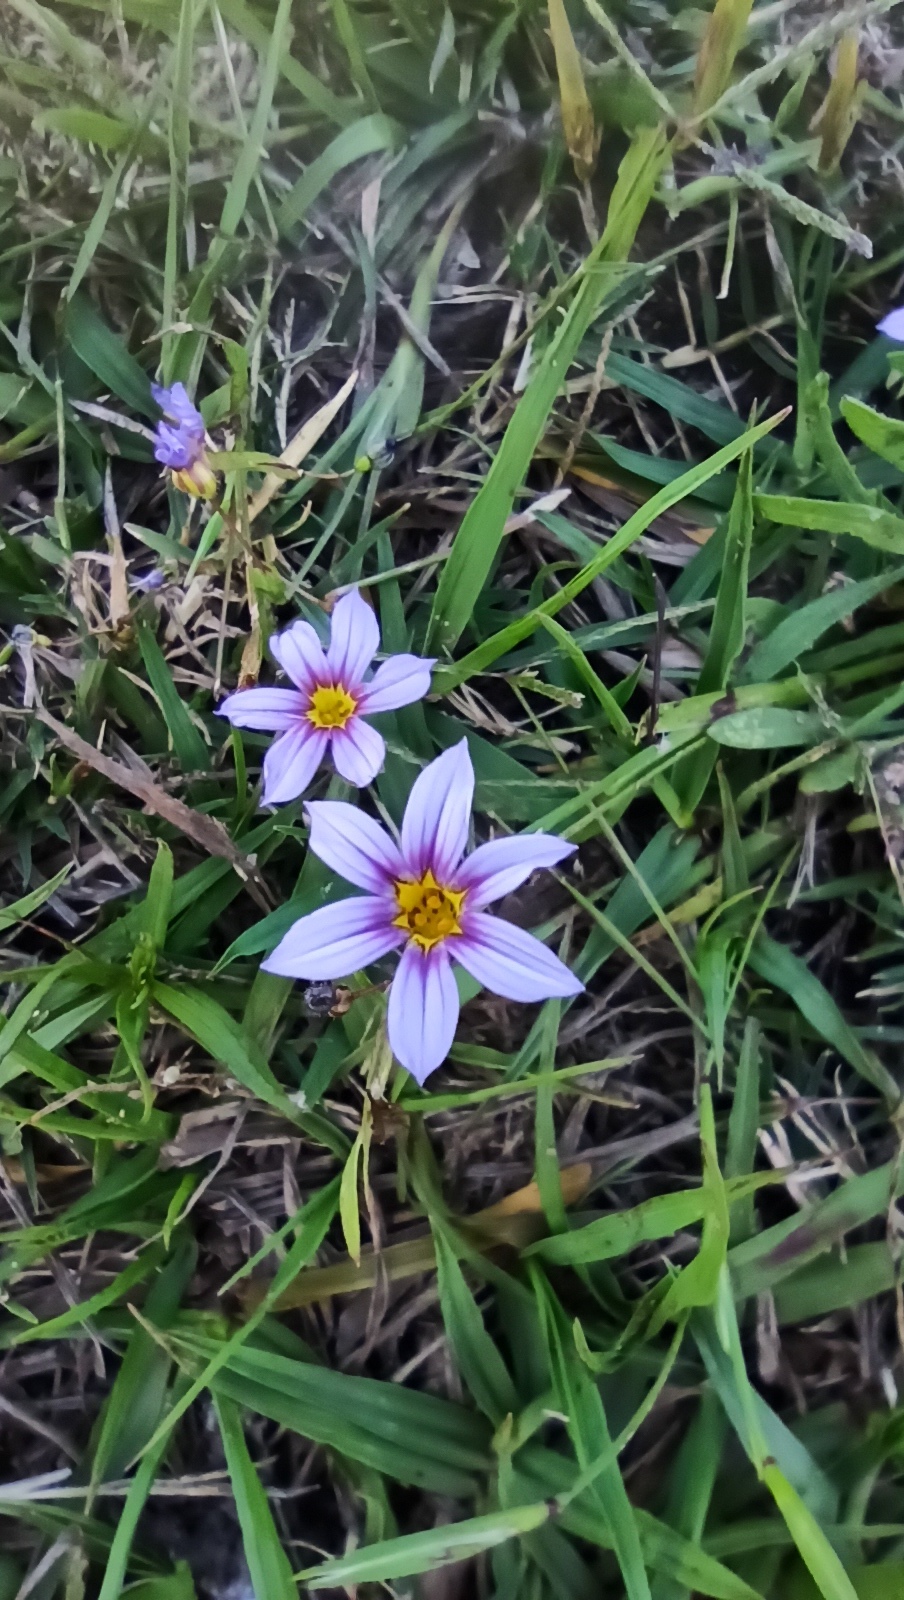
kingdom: Plantae
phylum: Tracheophyta
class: Liliopsida
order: Asparagales
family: Iridaceae
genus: Sisyrinchium
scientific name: Sisyrinchium micranthum
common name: Bermuda pigroot
